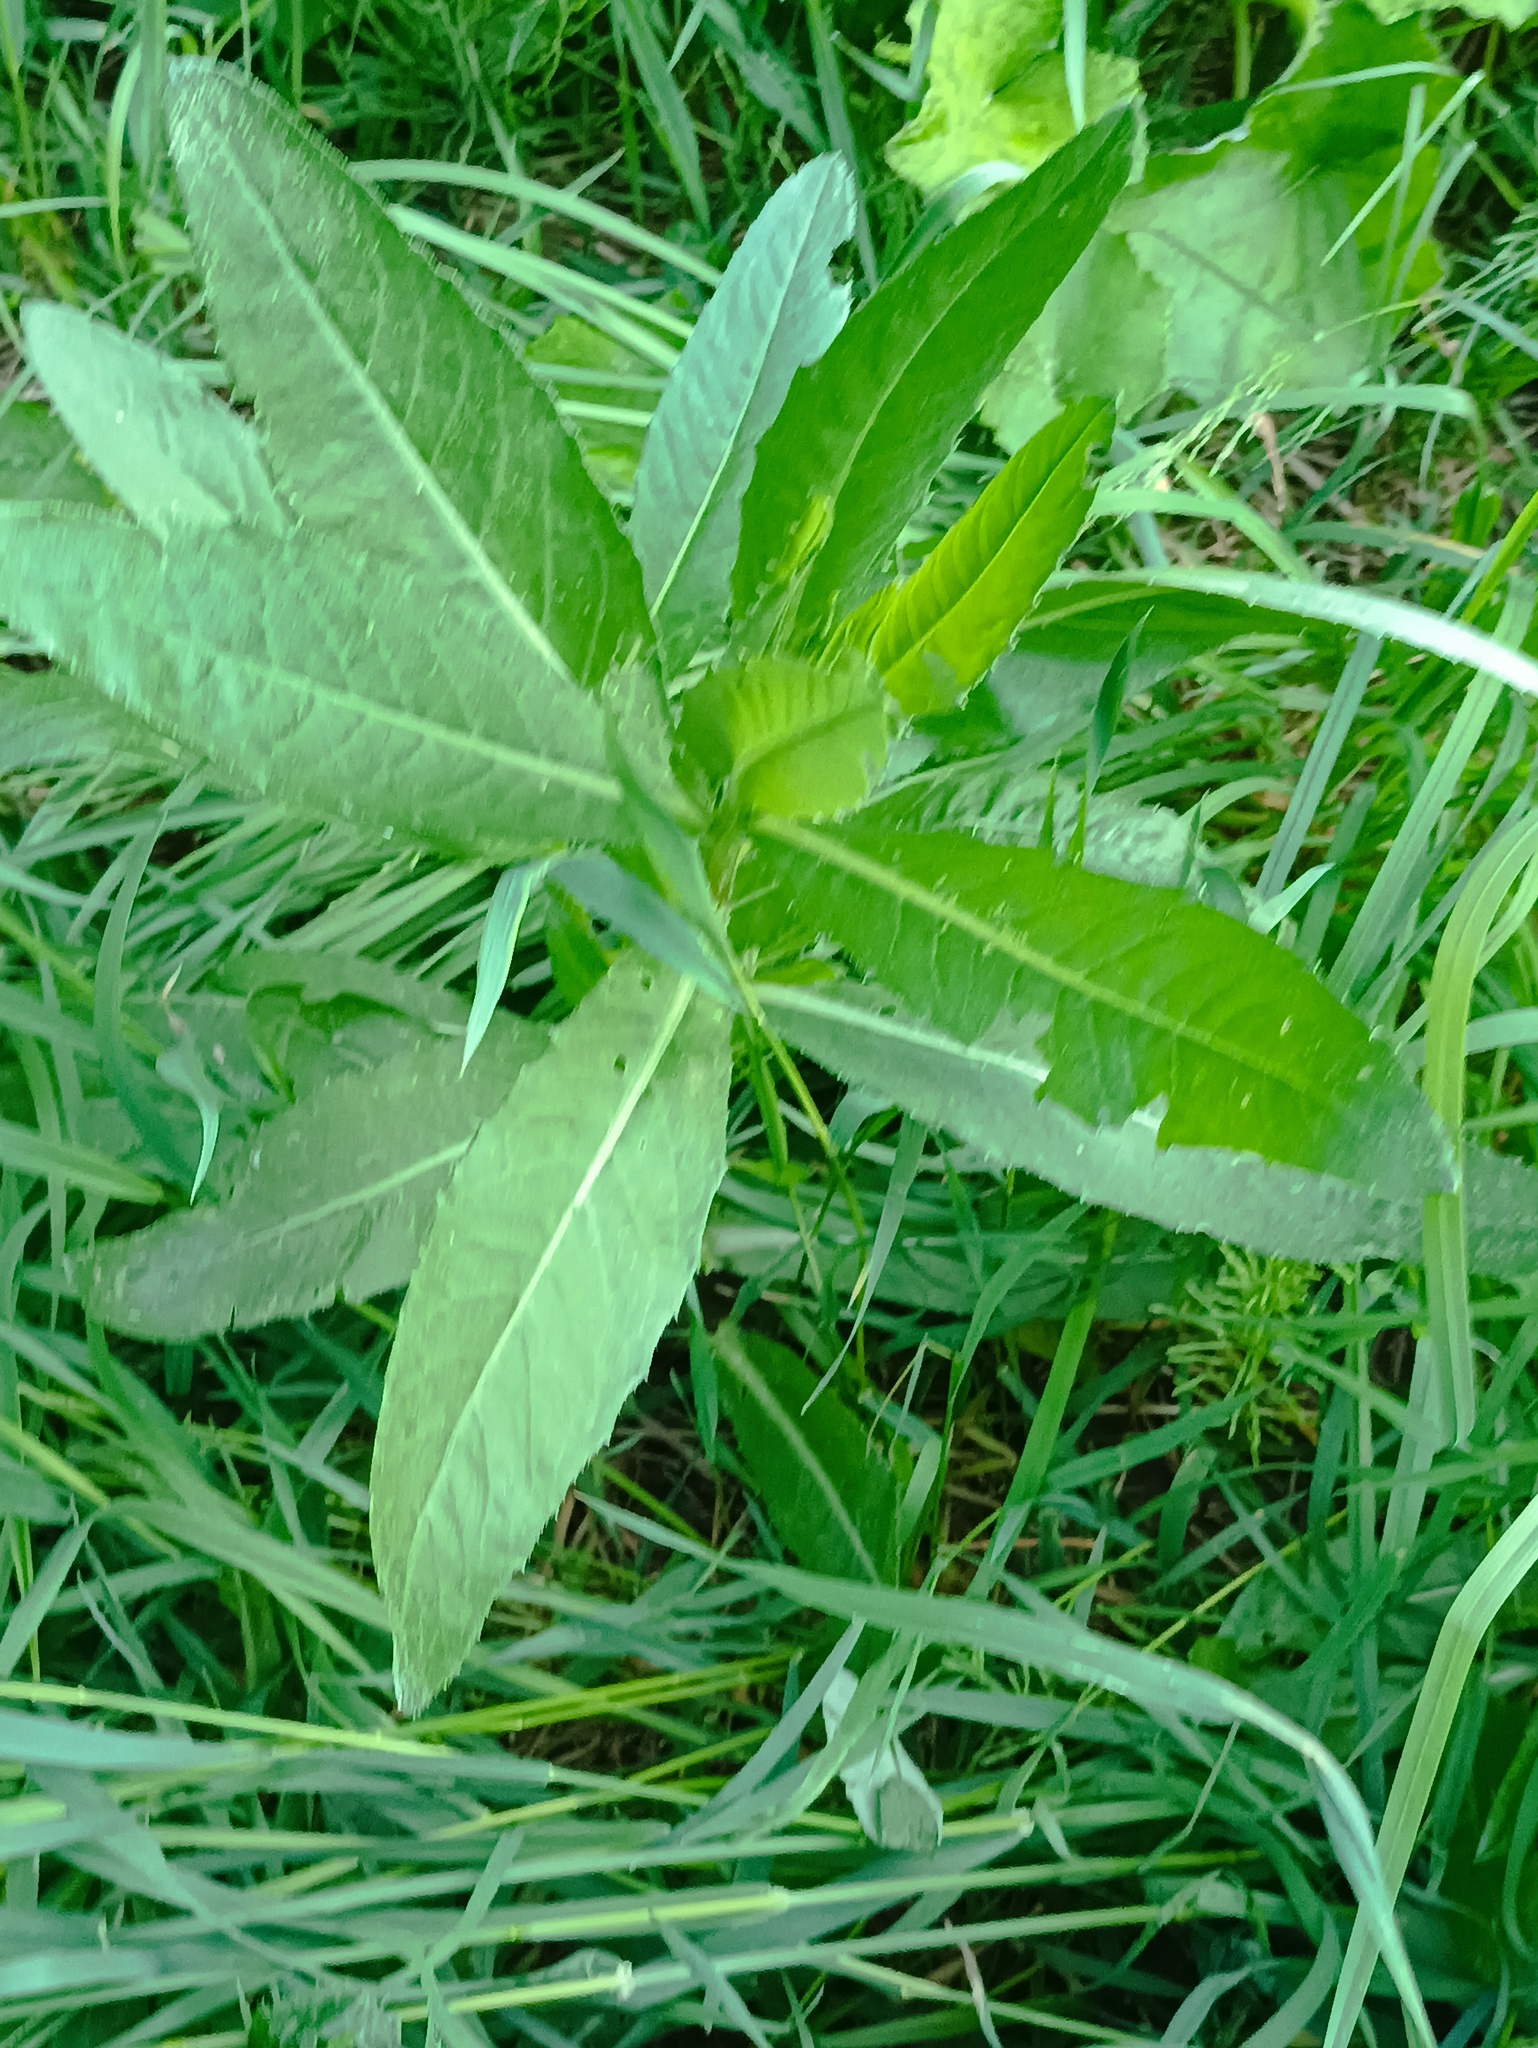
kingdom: Plantae
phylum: Tracheophyta
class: Magnoliopsida
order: Asterales
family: Asteraceae
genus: Cirsium
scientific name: Cirsium arvense
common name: Creeping thistle
